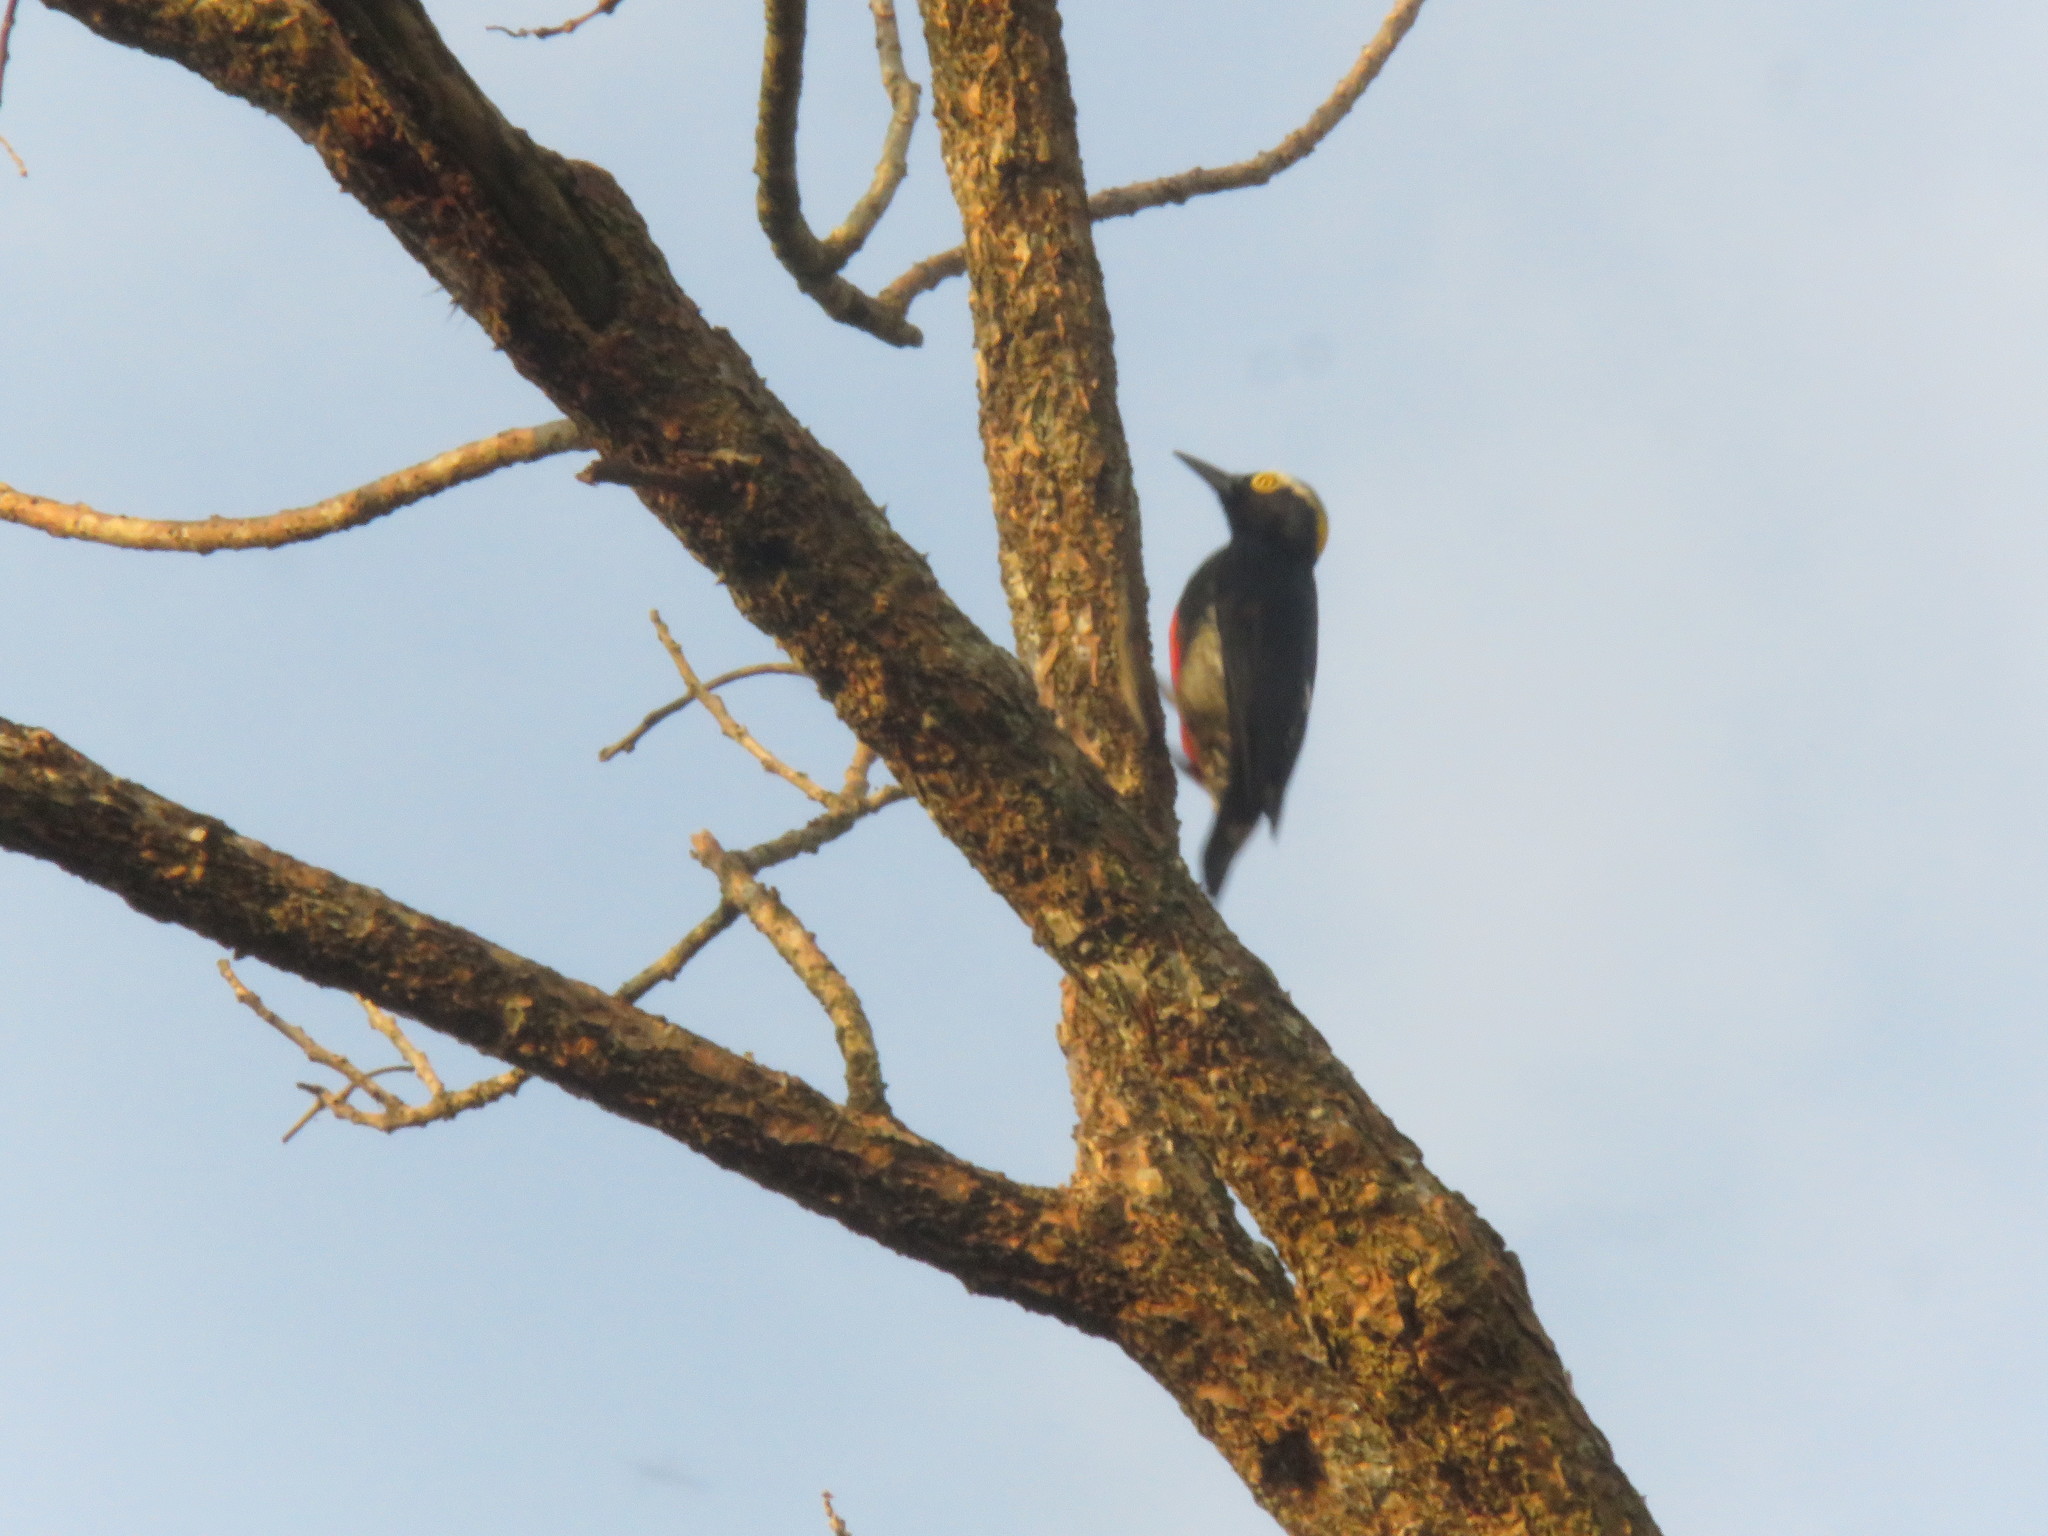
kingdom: Animalia
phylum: Chordata
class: Aves
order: Piciformes
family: Picidae
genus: Melanerpes
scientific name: Melanerpes cruentatus
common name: Yellow-tufted woodpecker
